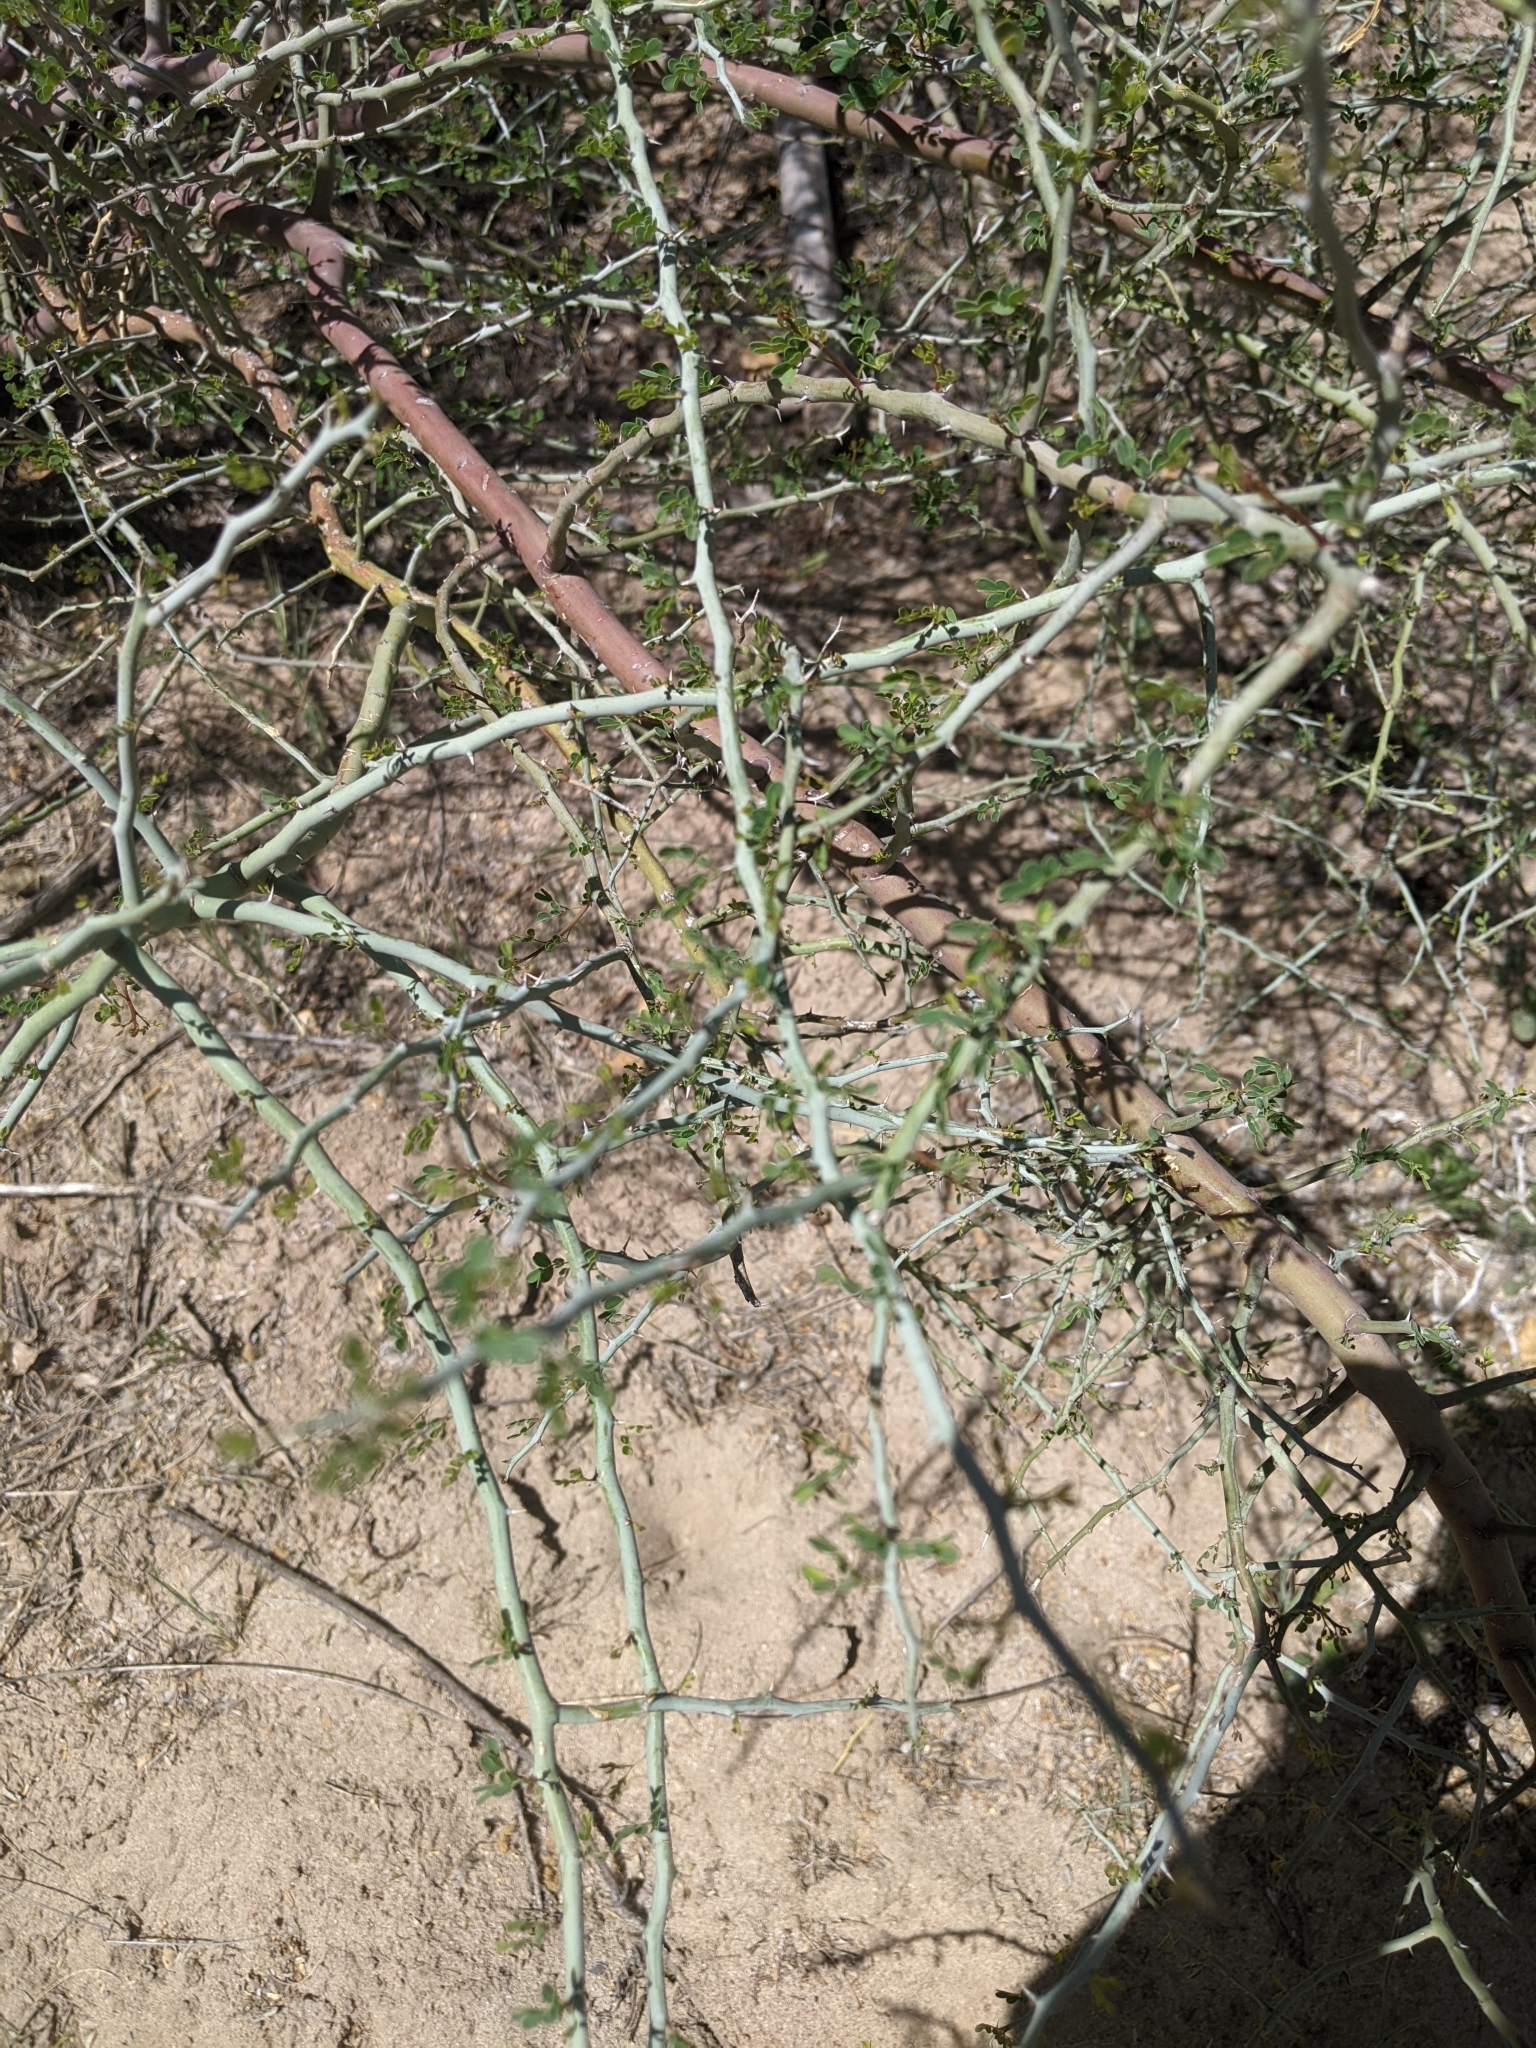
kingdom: Plantae
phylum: Tracheophyta
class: Magnoliopsida
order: Fabales
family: Fabaceae
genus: Parkinsonia
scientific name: Parkinsonia florida
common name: Blue paloverde
